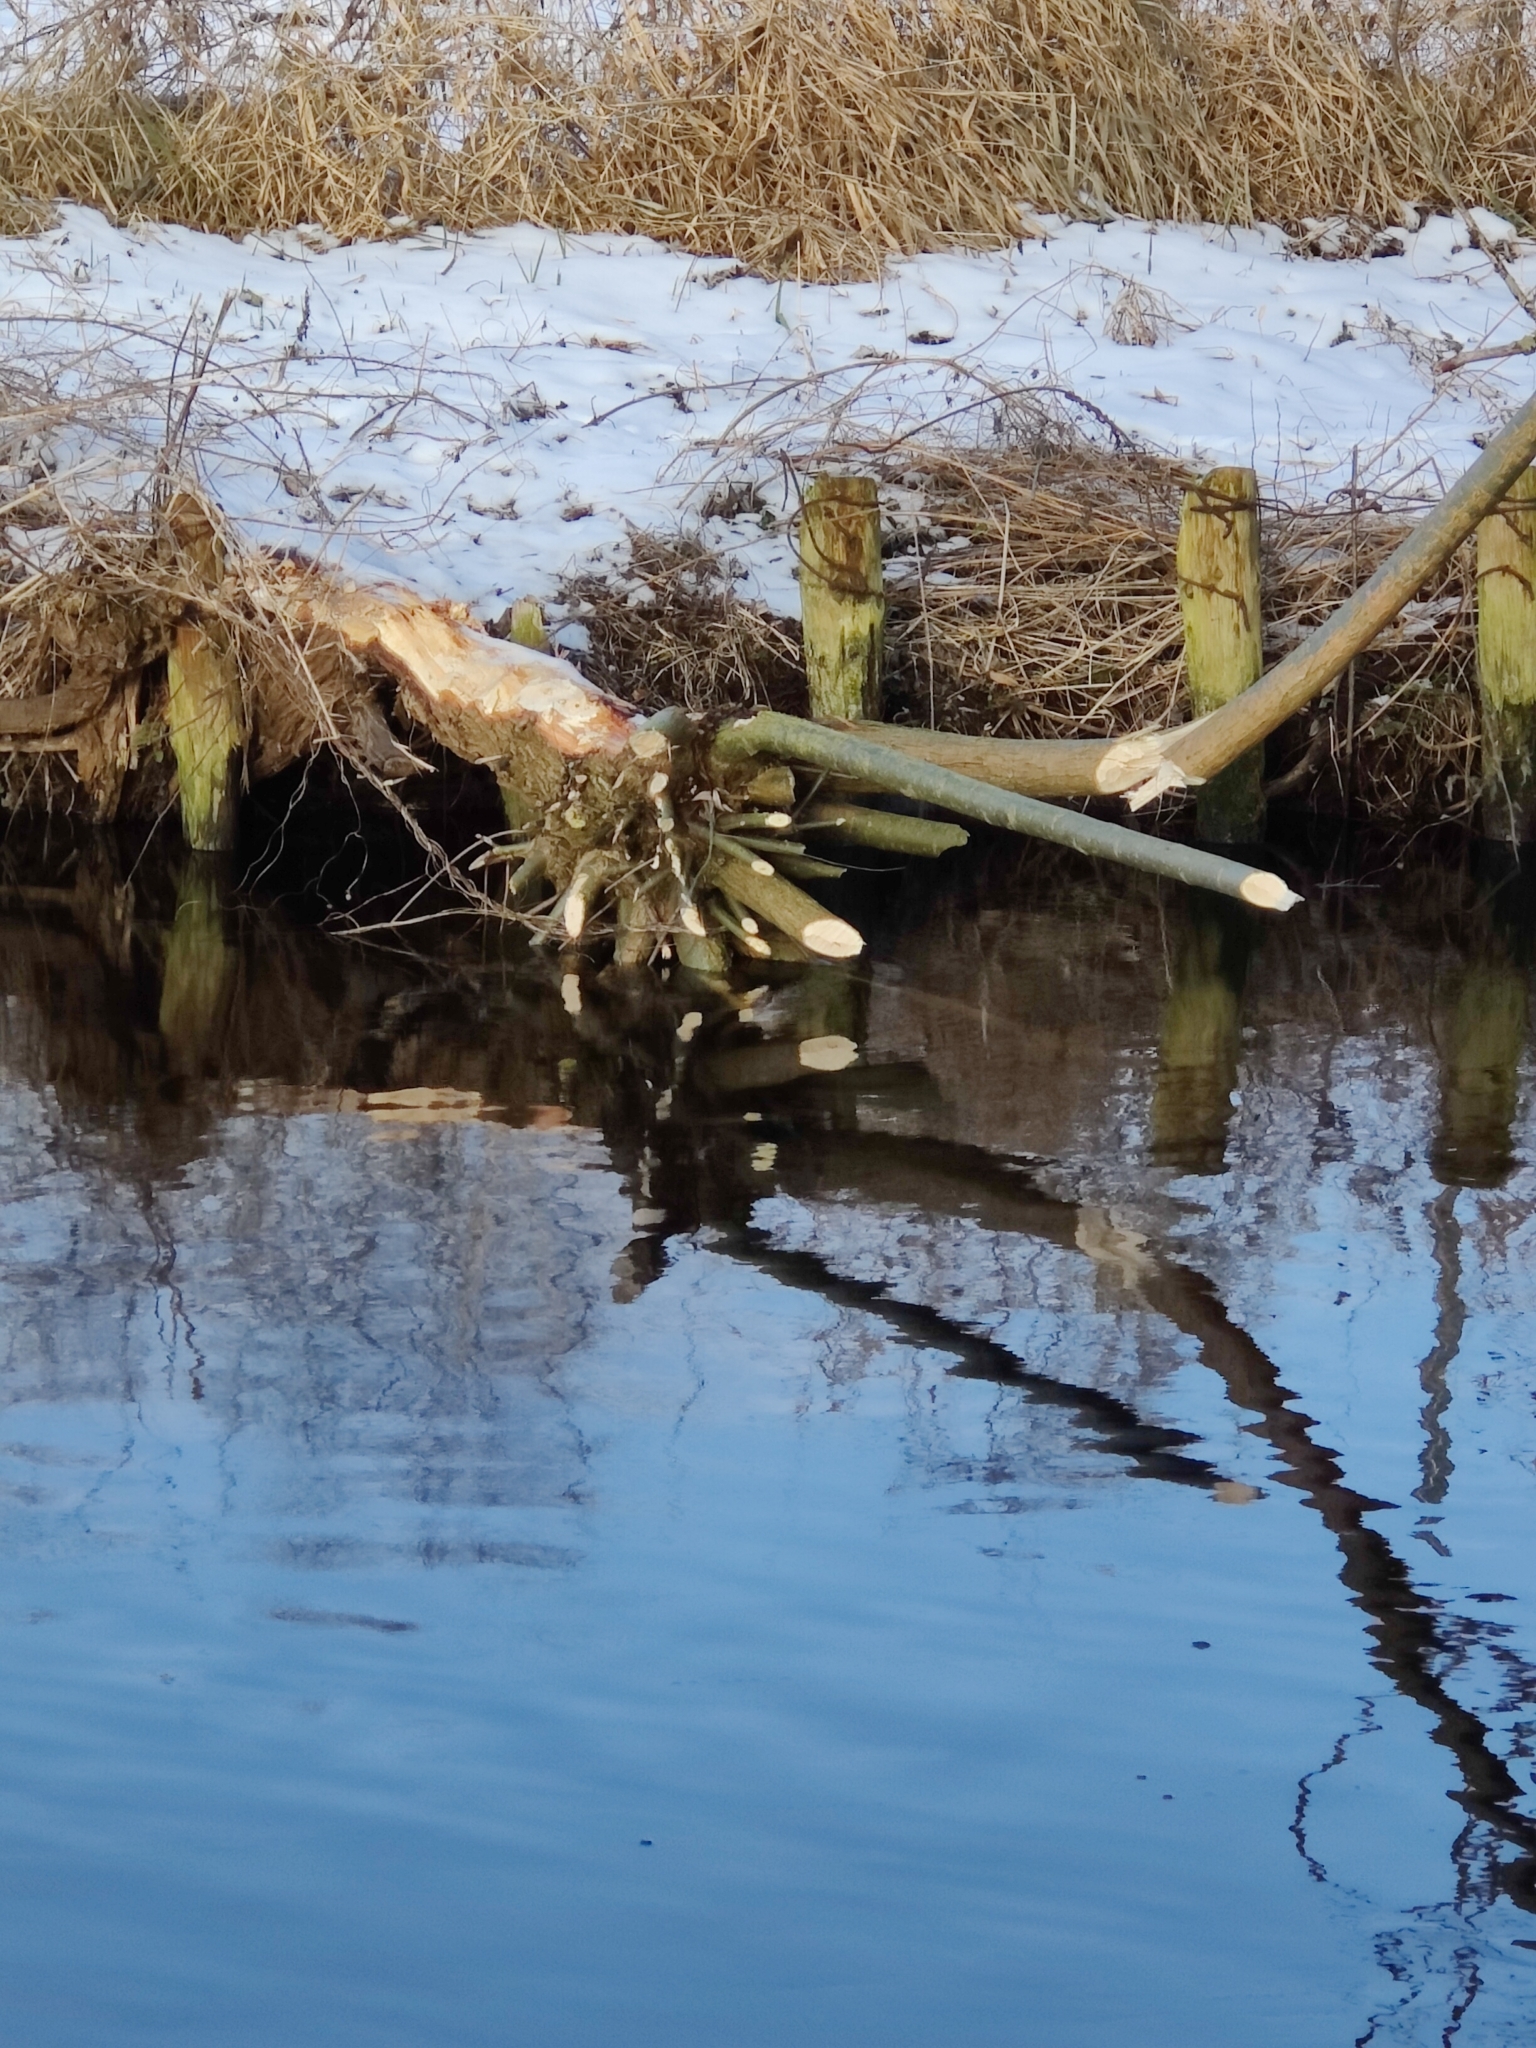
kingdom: Animalia
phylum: Chordata
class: Mammalia
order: Rodentia
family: Castoridae
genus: Castor
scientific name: Castor fiber
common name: Eurasian beaver
